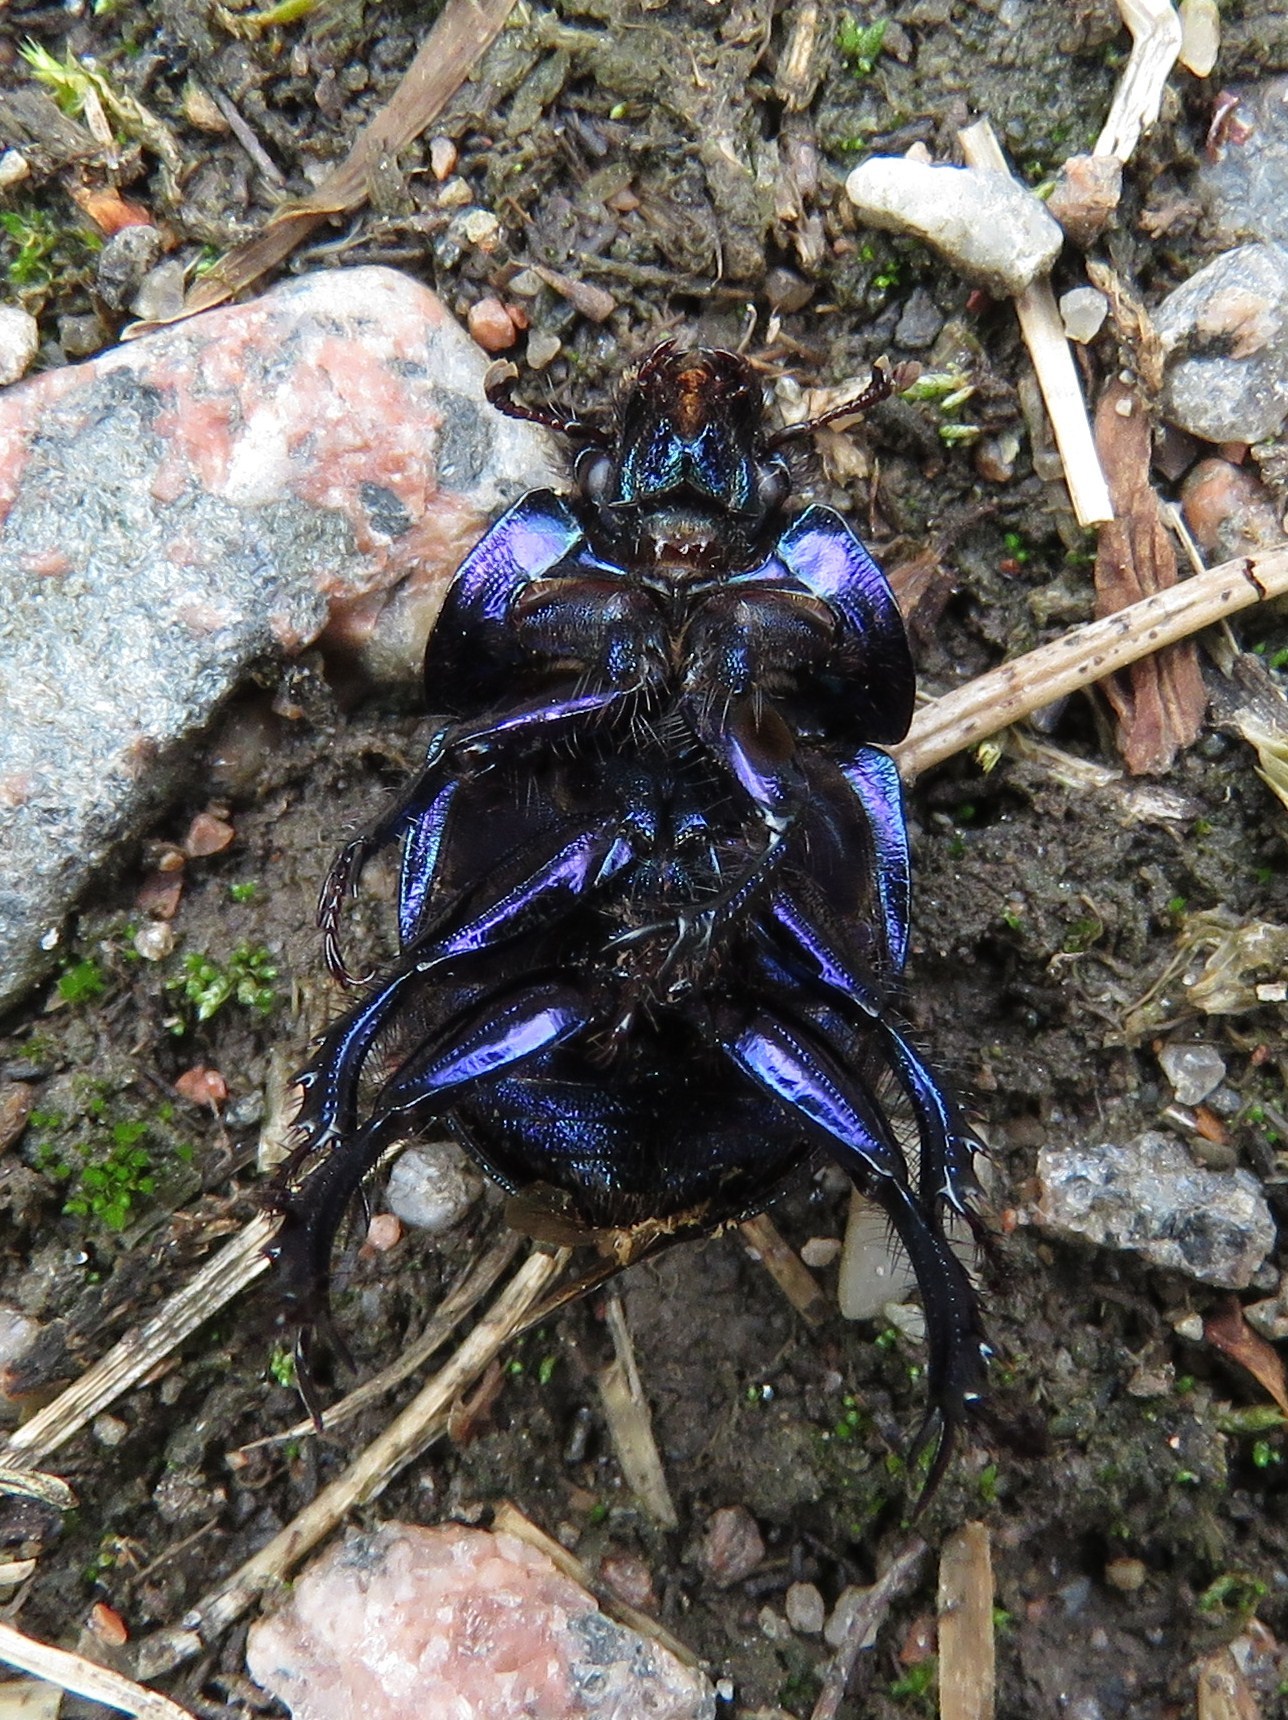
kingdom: Animalia
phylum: Arthropoda
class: Insecta
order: Coleoptera
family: Geotrupidae
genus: Anoplotrupes
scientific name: Anoplotrupes stercorosus
